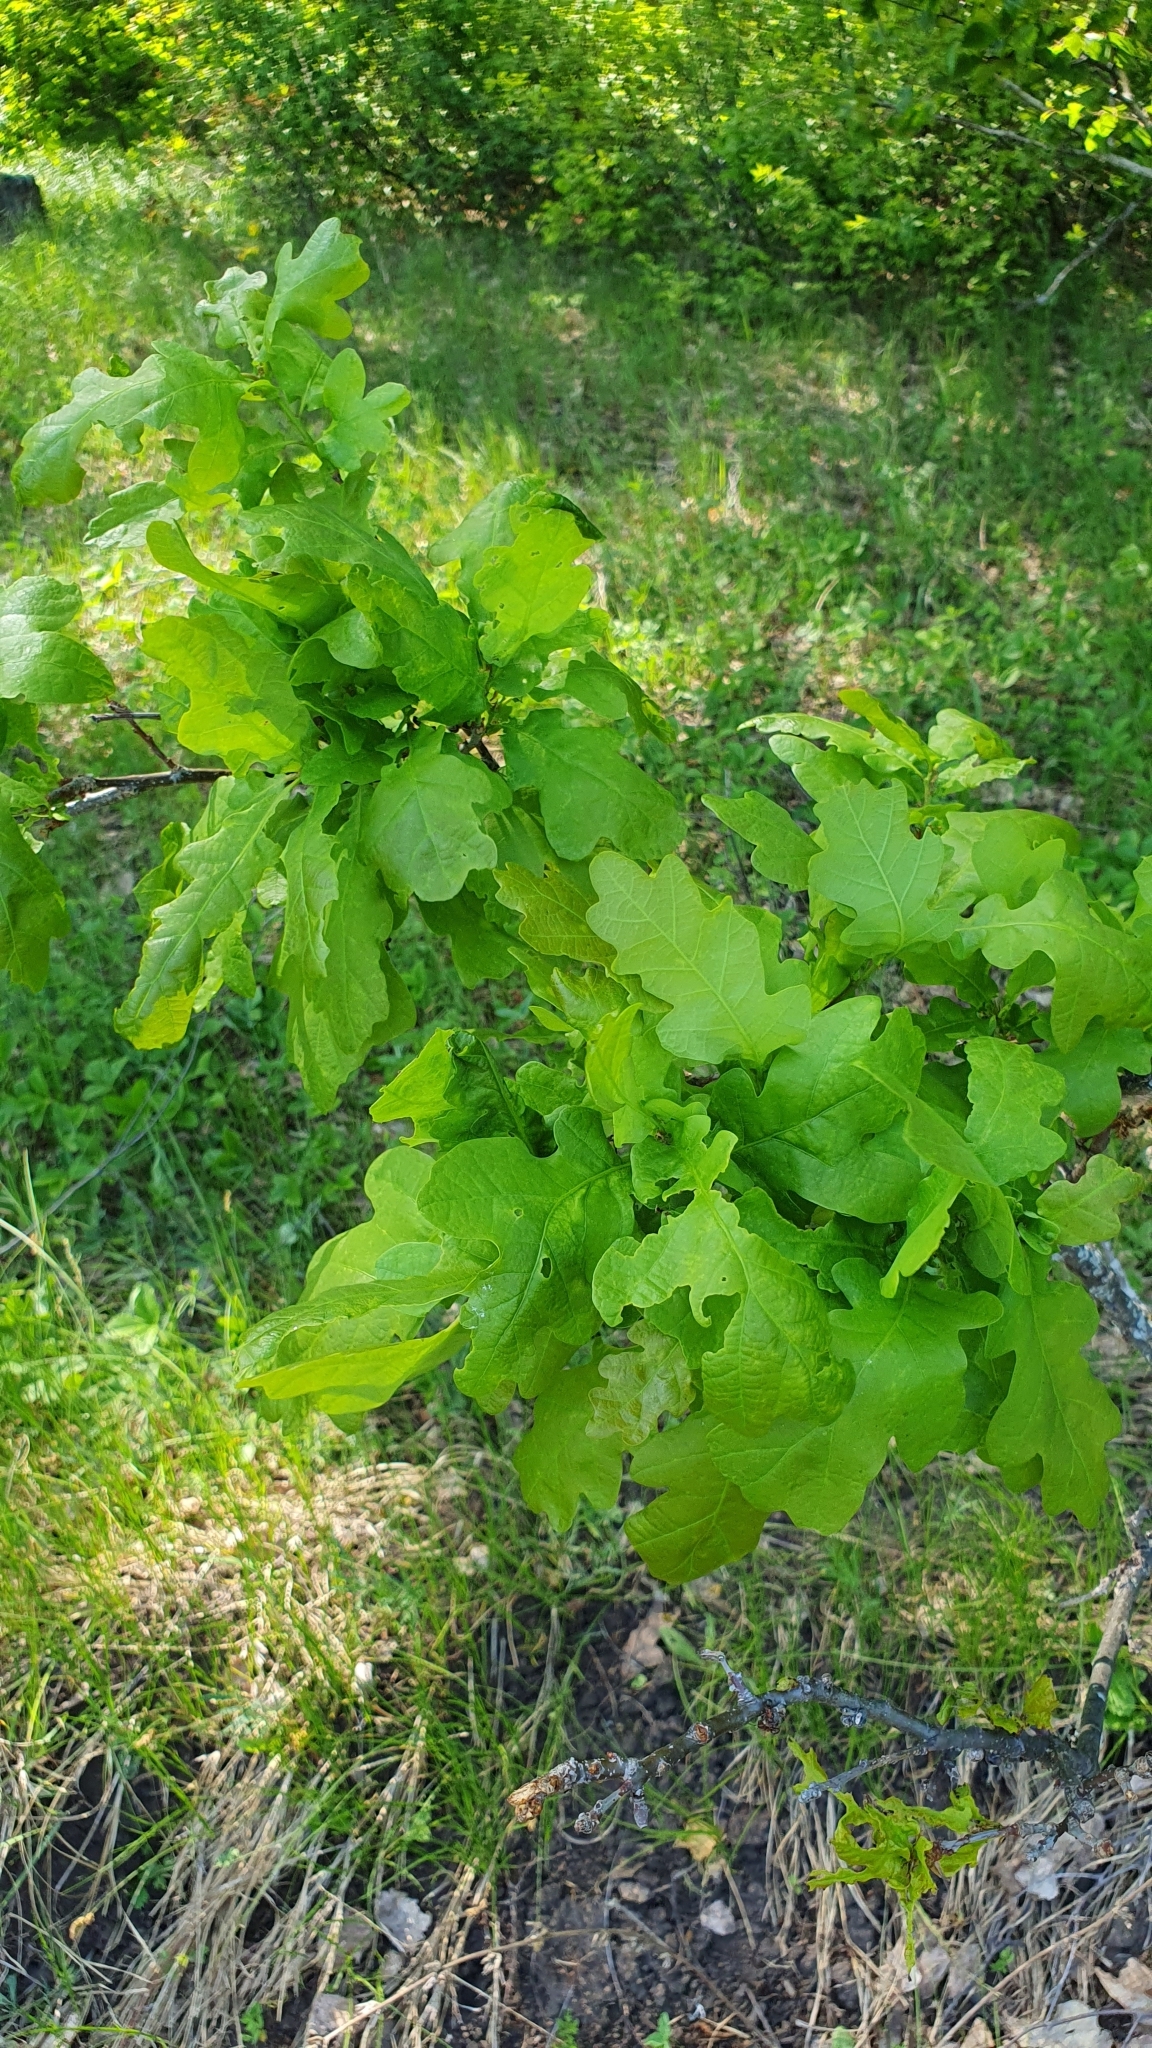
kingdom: Plantae
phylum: Tracheophyta
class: Magnoliopsida
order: Fagales
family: Fagaceae
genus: Quercus
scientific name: Quercus robur
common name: Pedunculate oak
